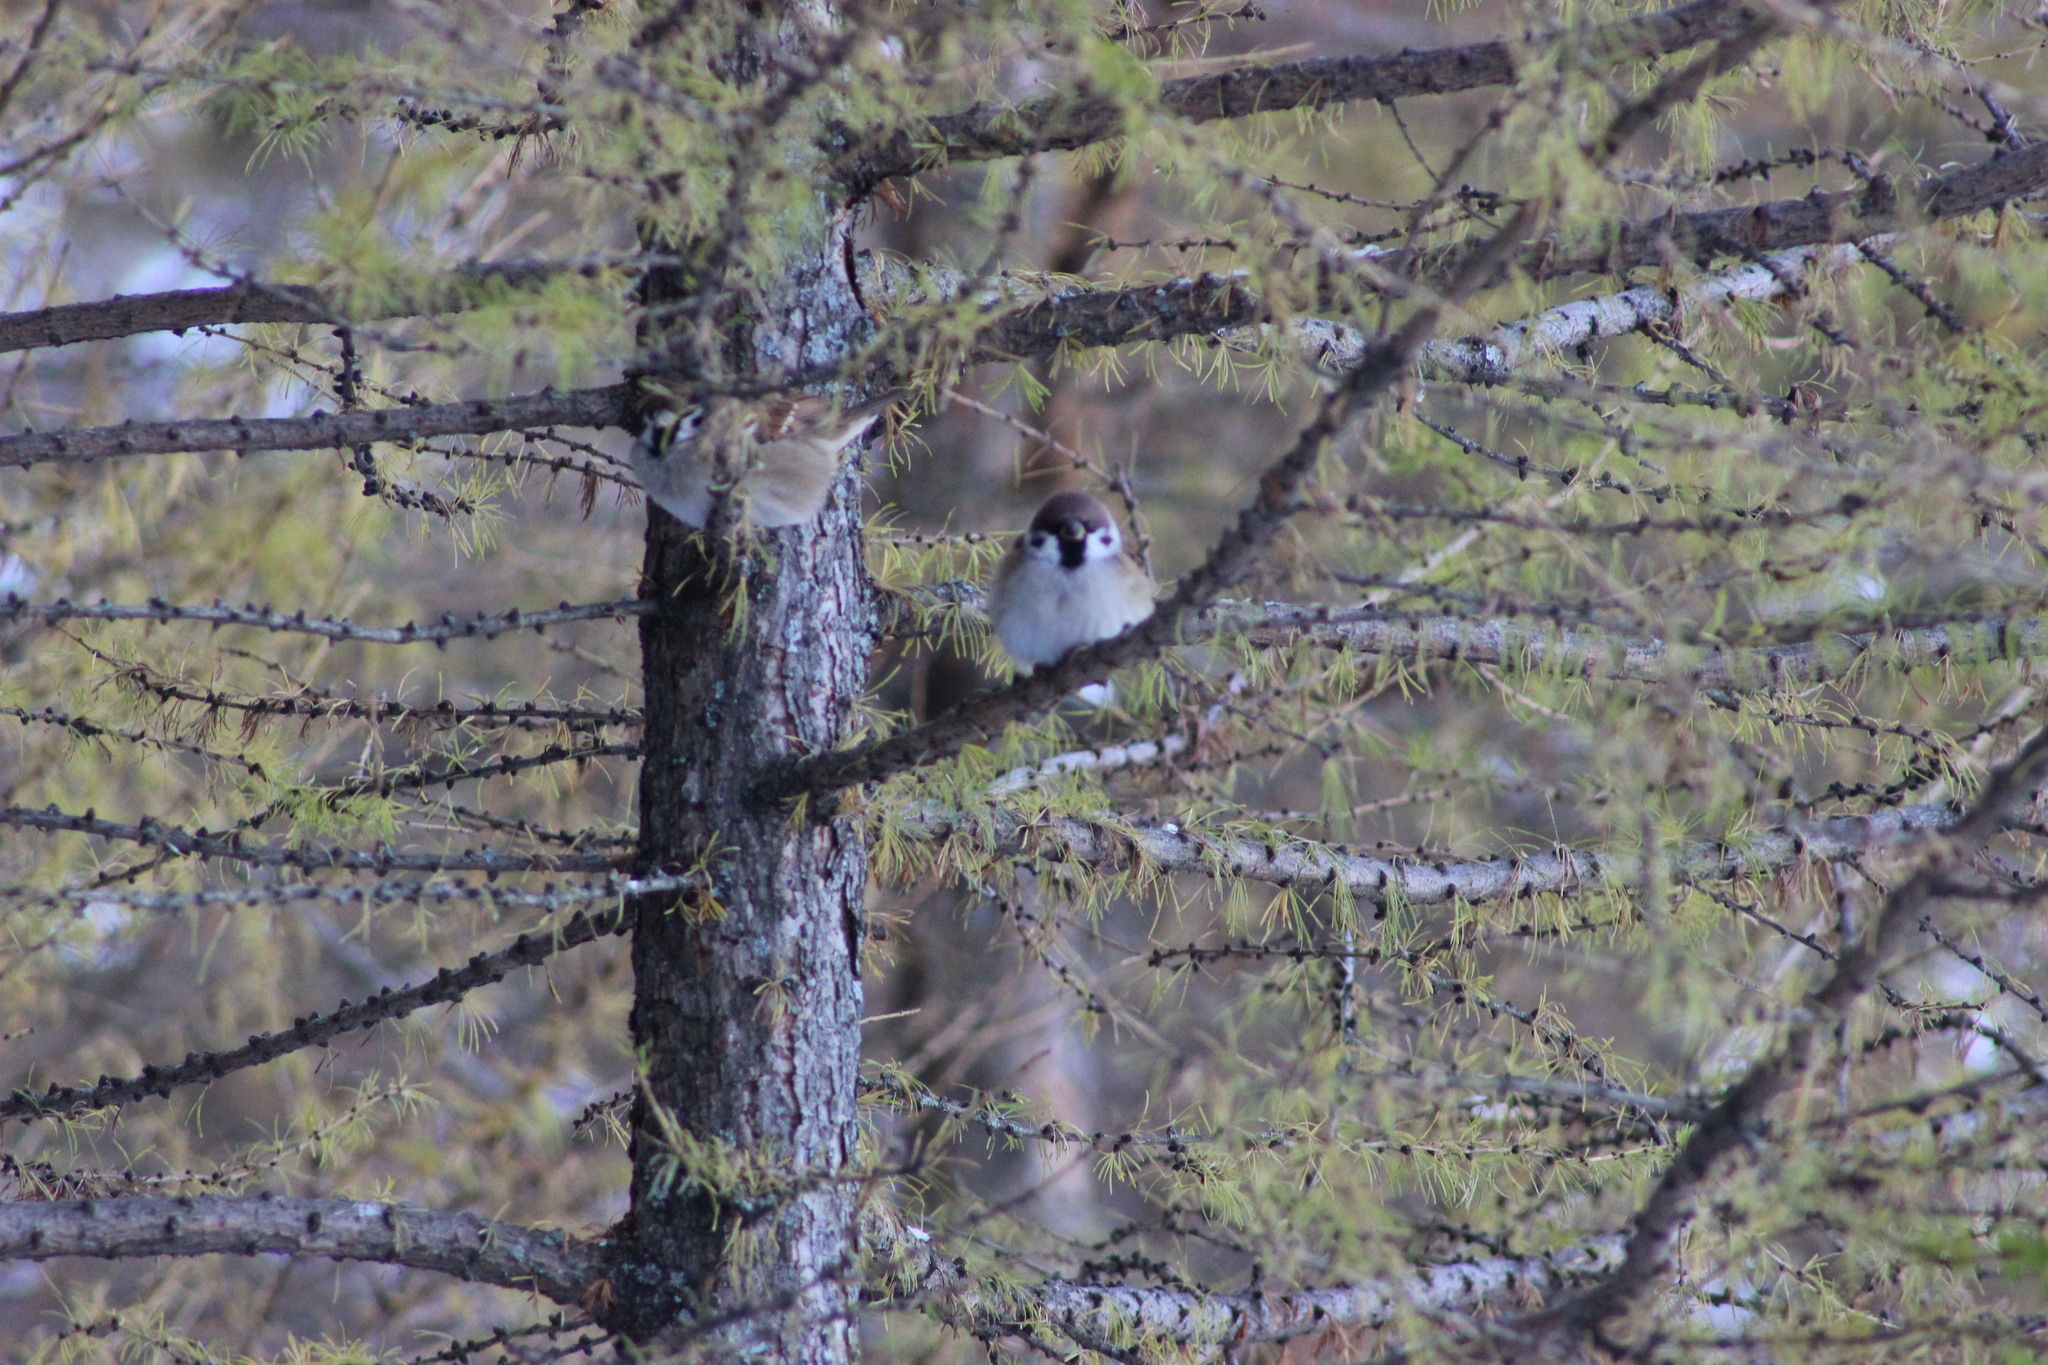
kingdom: Animalia
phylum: Chordata
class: Aves
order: Passeriformes
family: Passeridae
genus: Passer
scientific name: Passer montanus
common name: Eurasian tree sparrow
